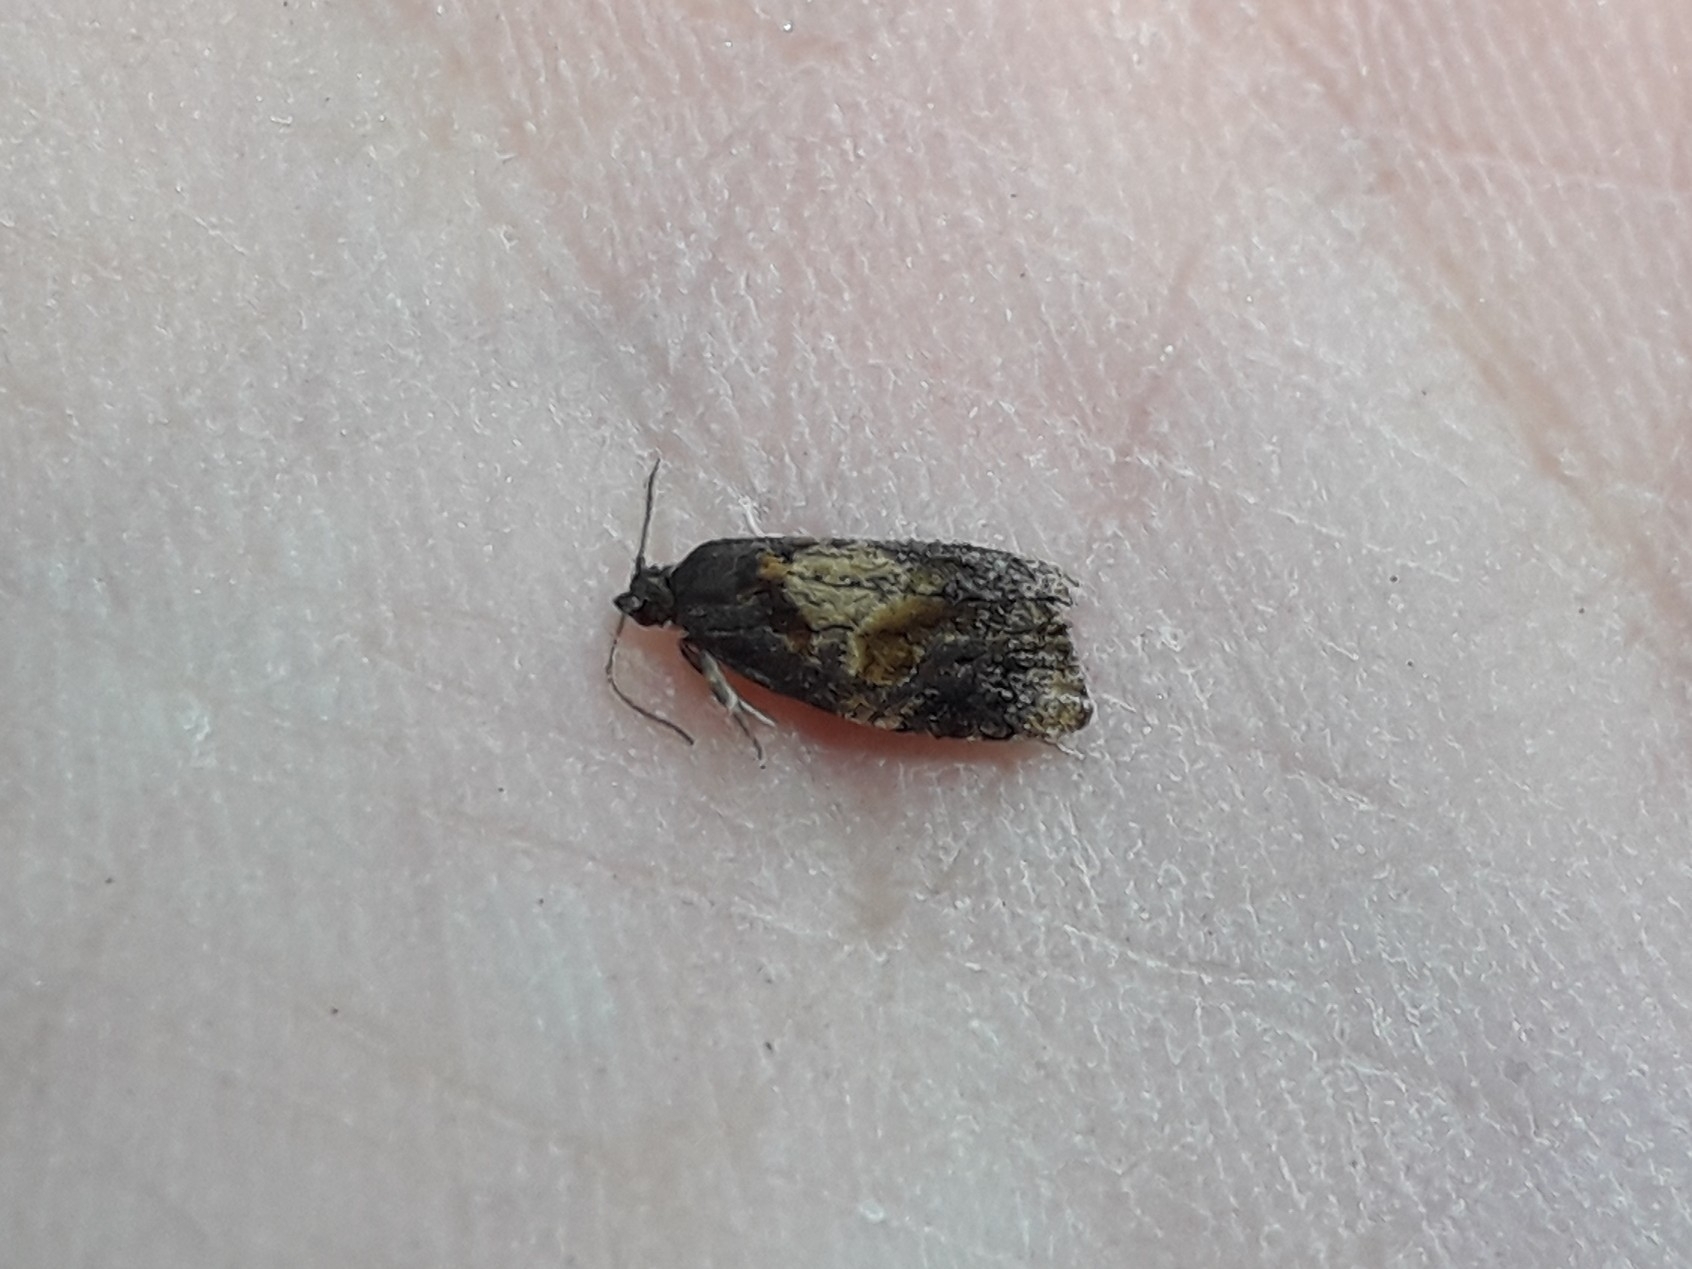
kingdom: Animalia
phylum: Arthropoda
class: Insecta
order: Lepidoptera
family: Tortricidae
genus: Ditula
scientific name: Ditula angustiorana
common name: Red-barred tortrix
